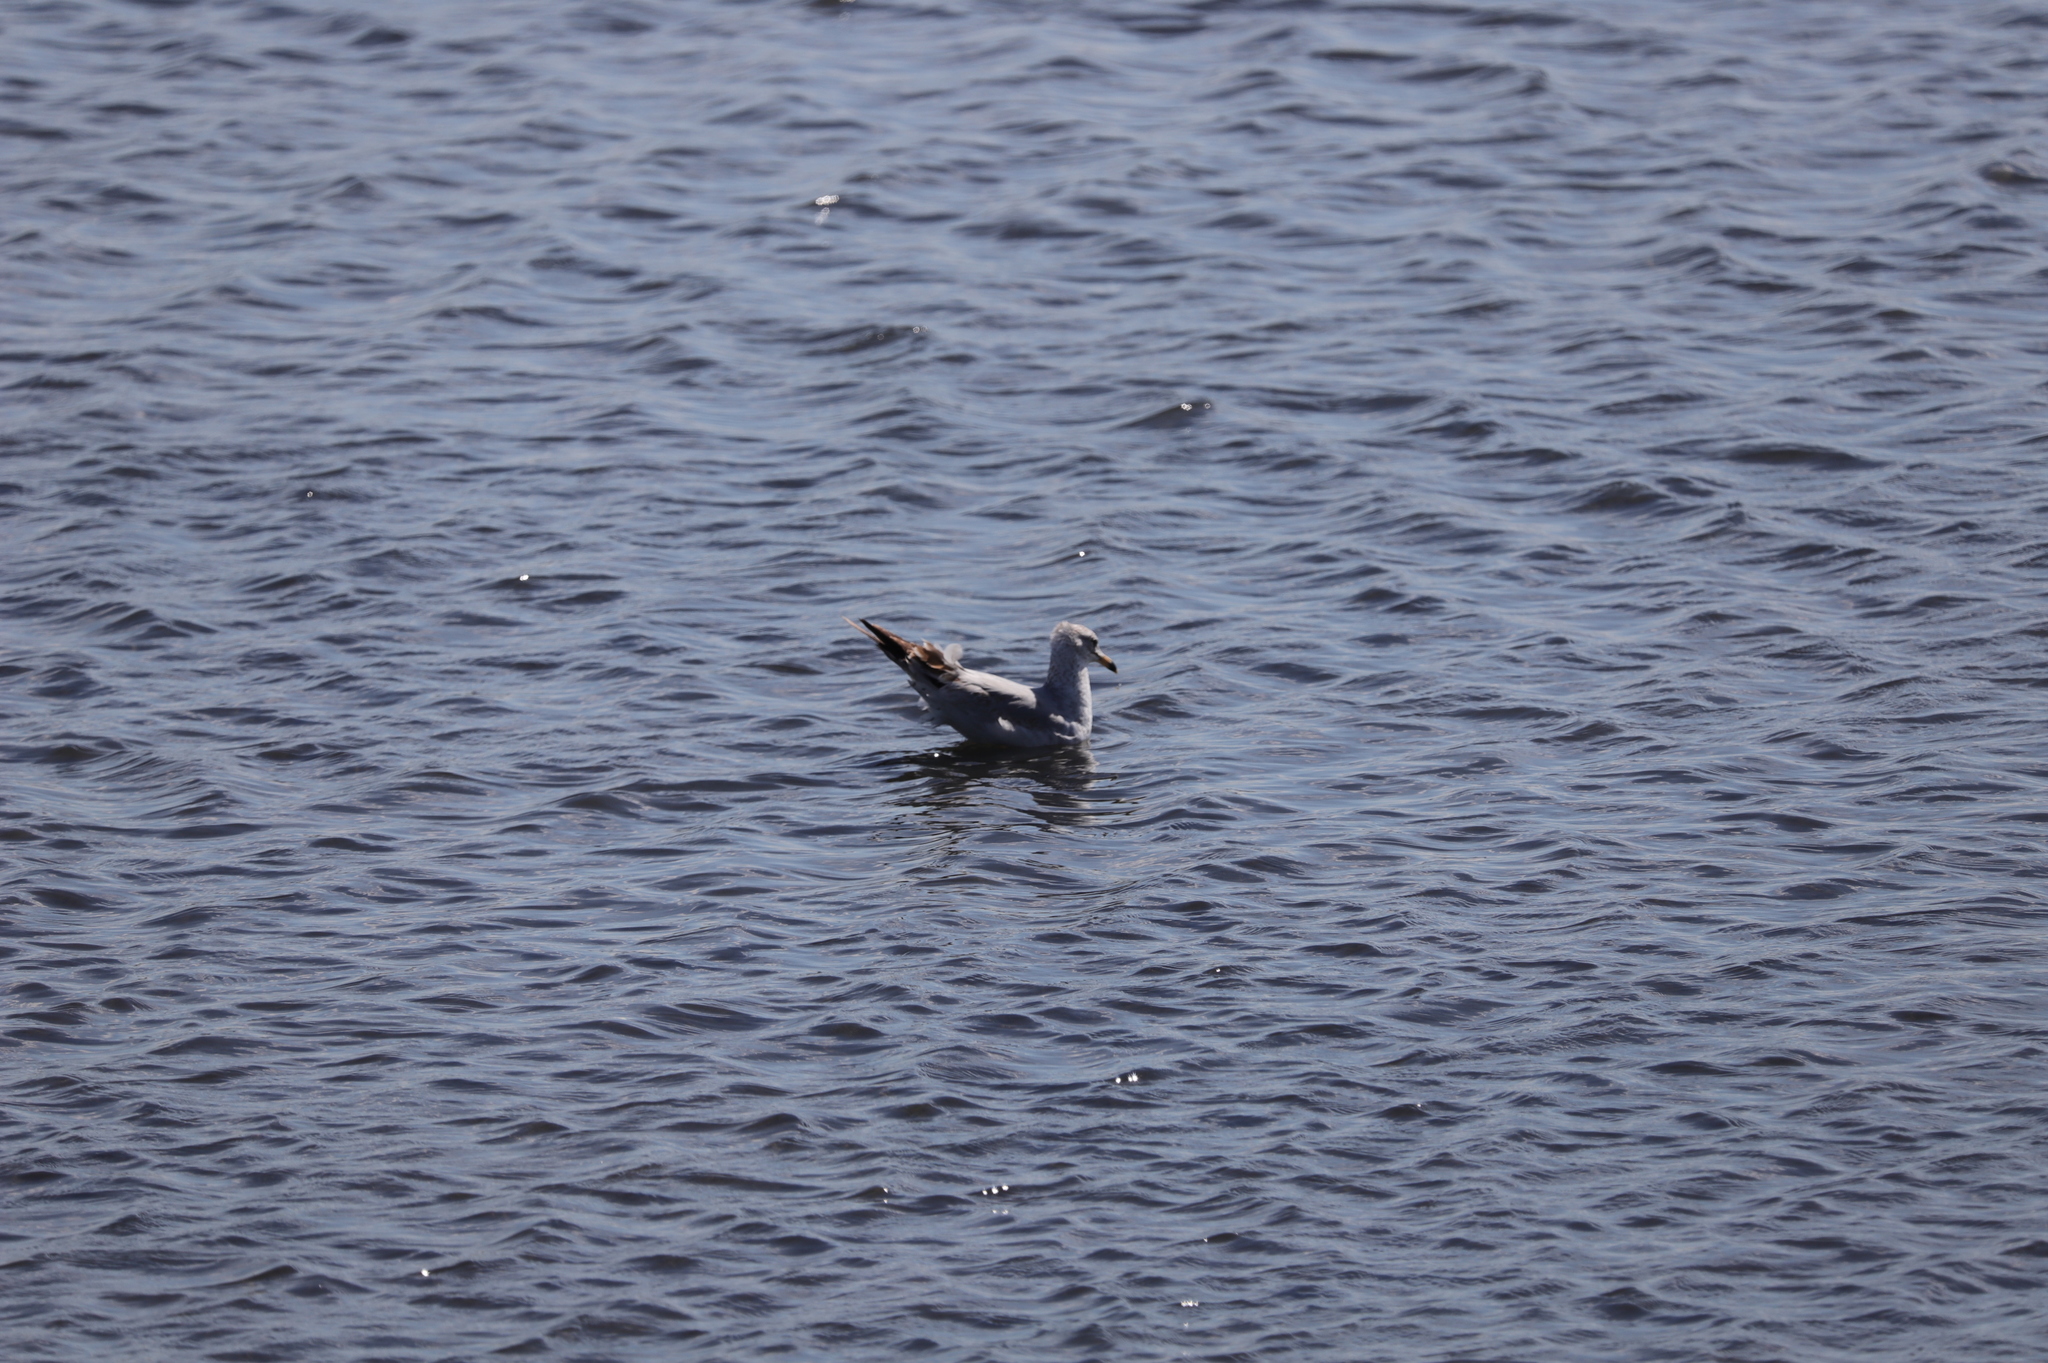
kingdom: Animalia
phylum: Chordata
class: Aves
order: Charadriiformes
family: Laridae
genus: Larus
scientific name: Larus delawarensis
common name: Ring-billed gull
